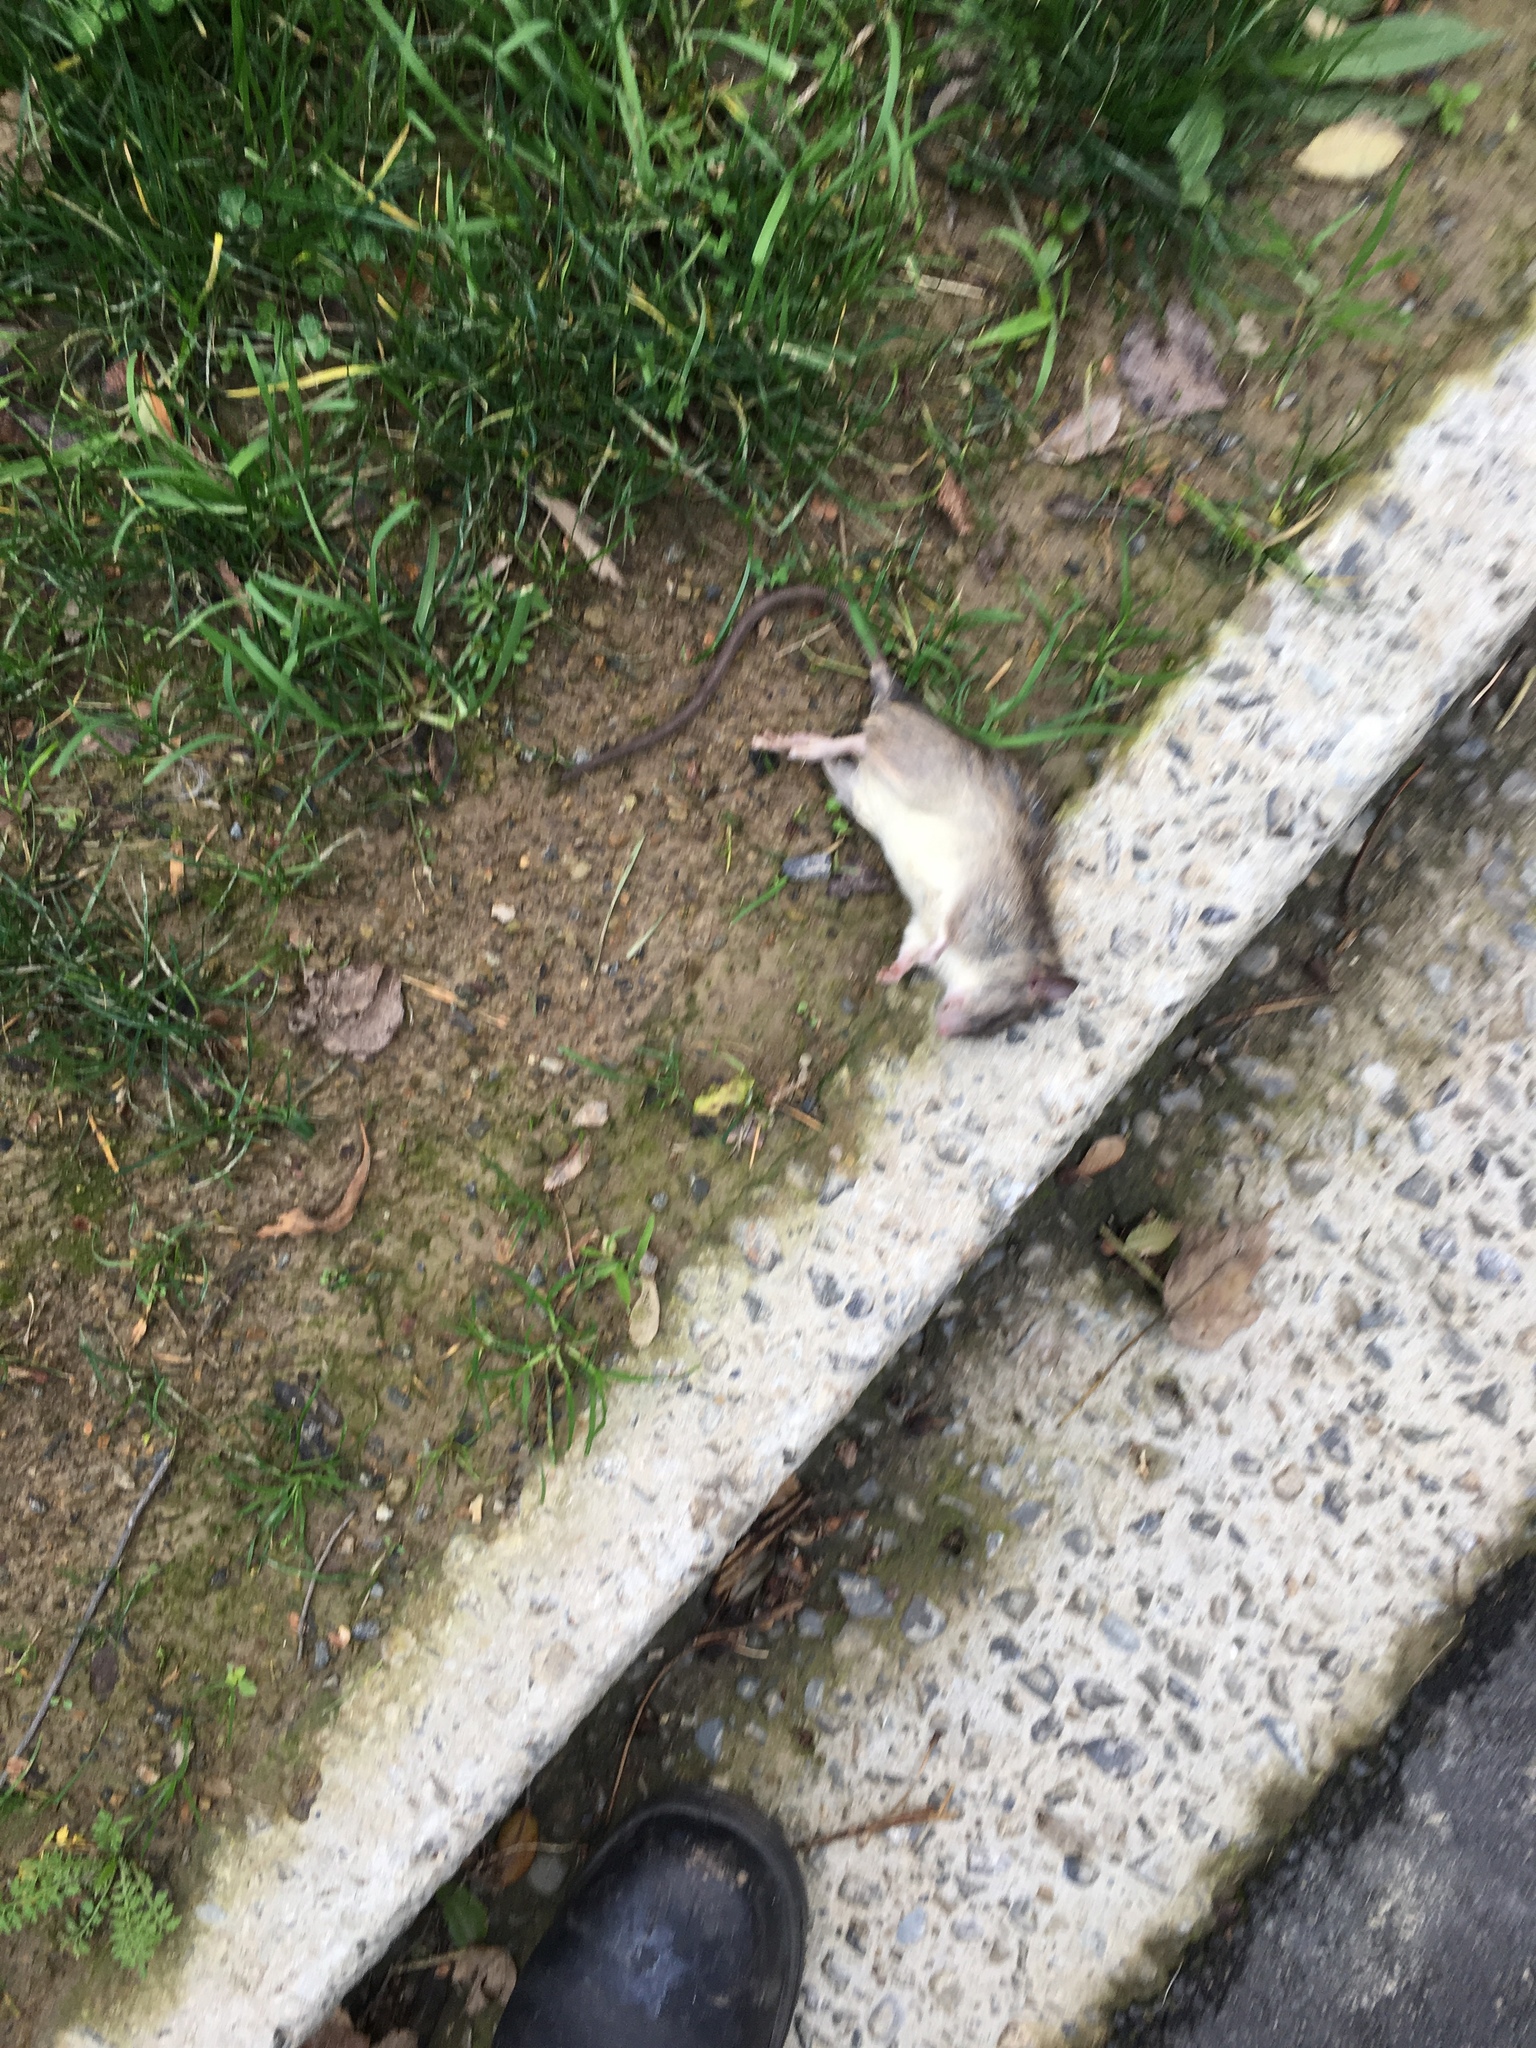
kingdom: Animalia
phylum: Chordata
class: Mammalia
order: Rodentia
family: Muridae
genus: Rattus
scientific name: Rattus rattus
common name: Black rat
